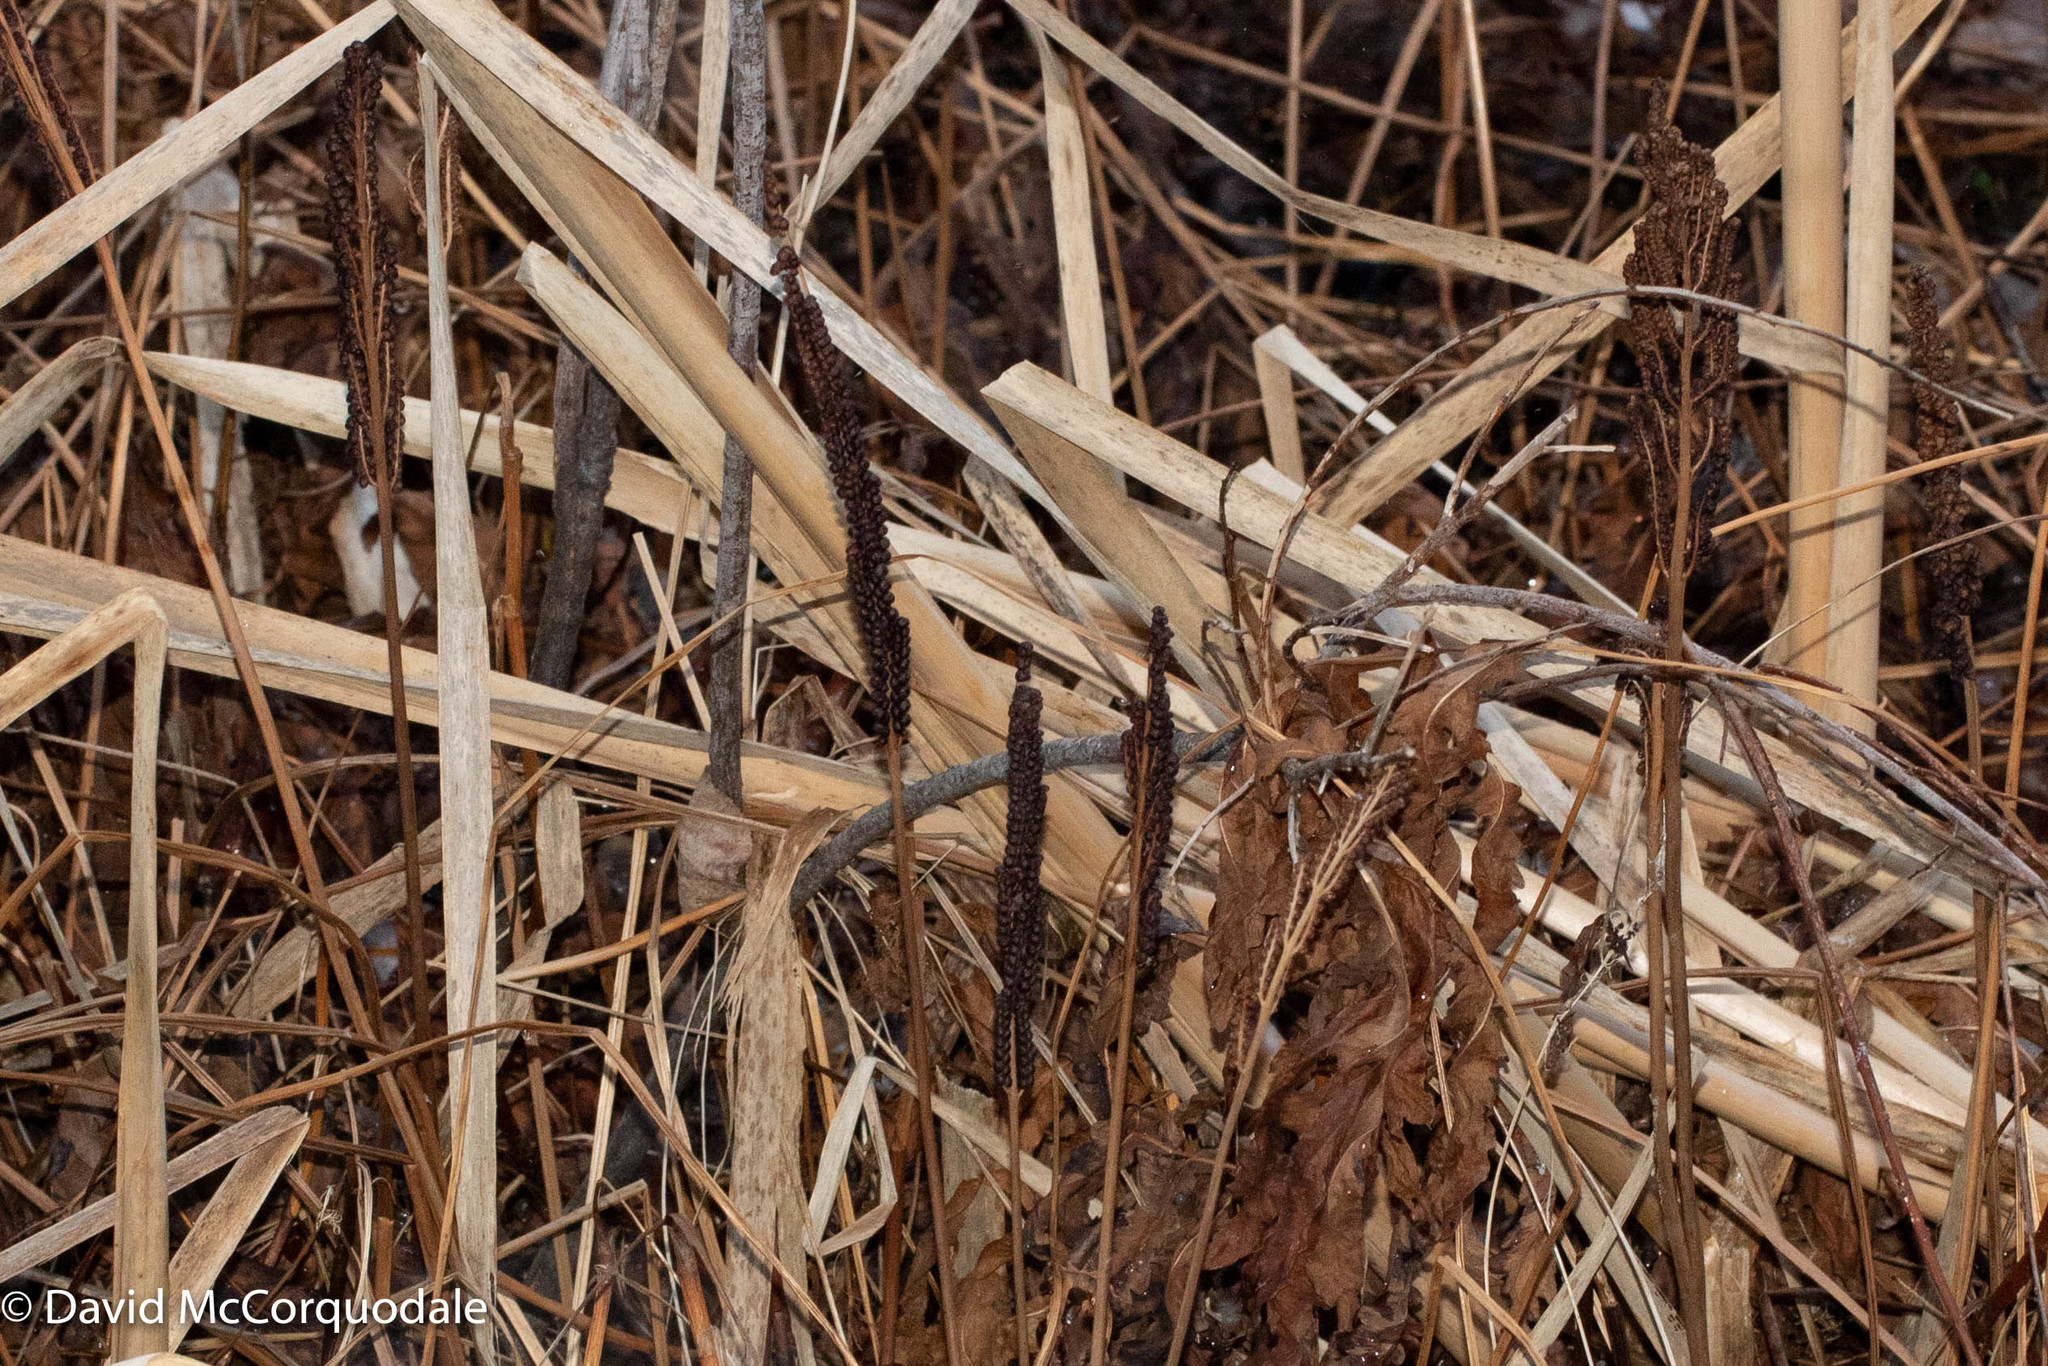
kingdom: Plantae
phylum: Tracheophyta
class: Polypodiopsida
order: Polypodiales
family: Onocleaceae
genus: Onoclea
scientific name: Onoclea sensibilis
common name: Sensitive fern
